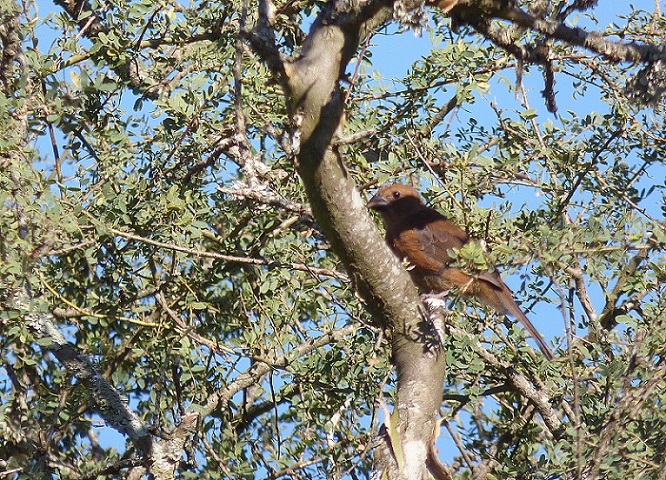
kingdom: Animalia
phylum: Chordata
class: Aves
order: Passeriformes
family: Cardinalidae
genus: Cyanoloxia
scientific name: Cyanoloxia brissonii
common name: Ultramarine grosbeak
